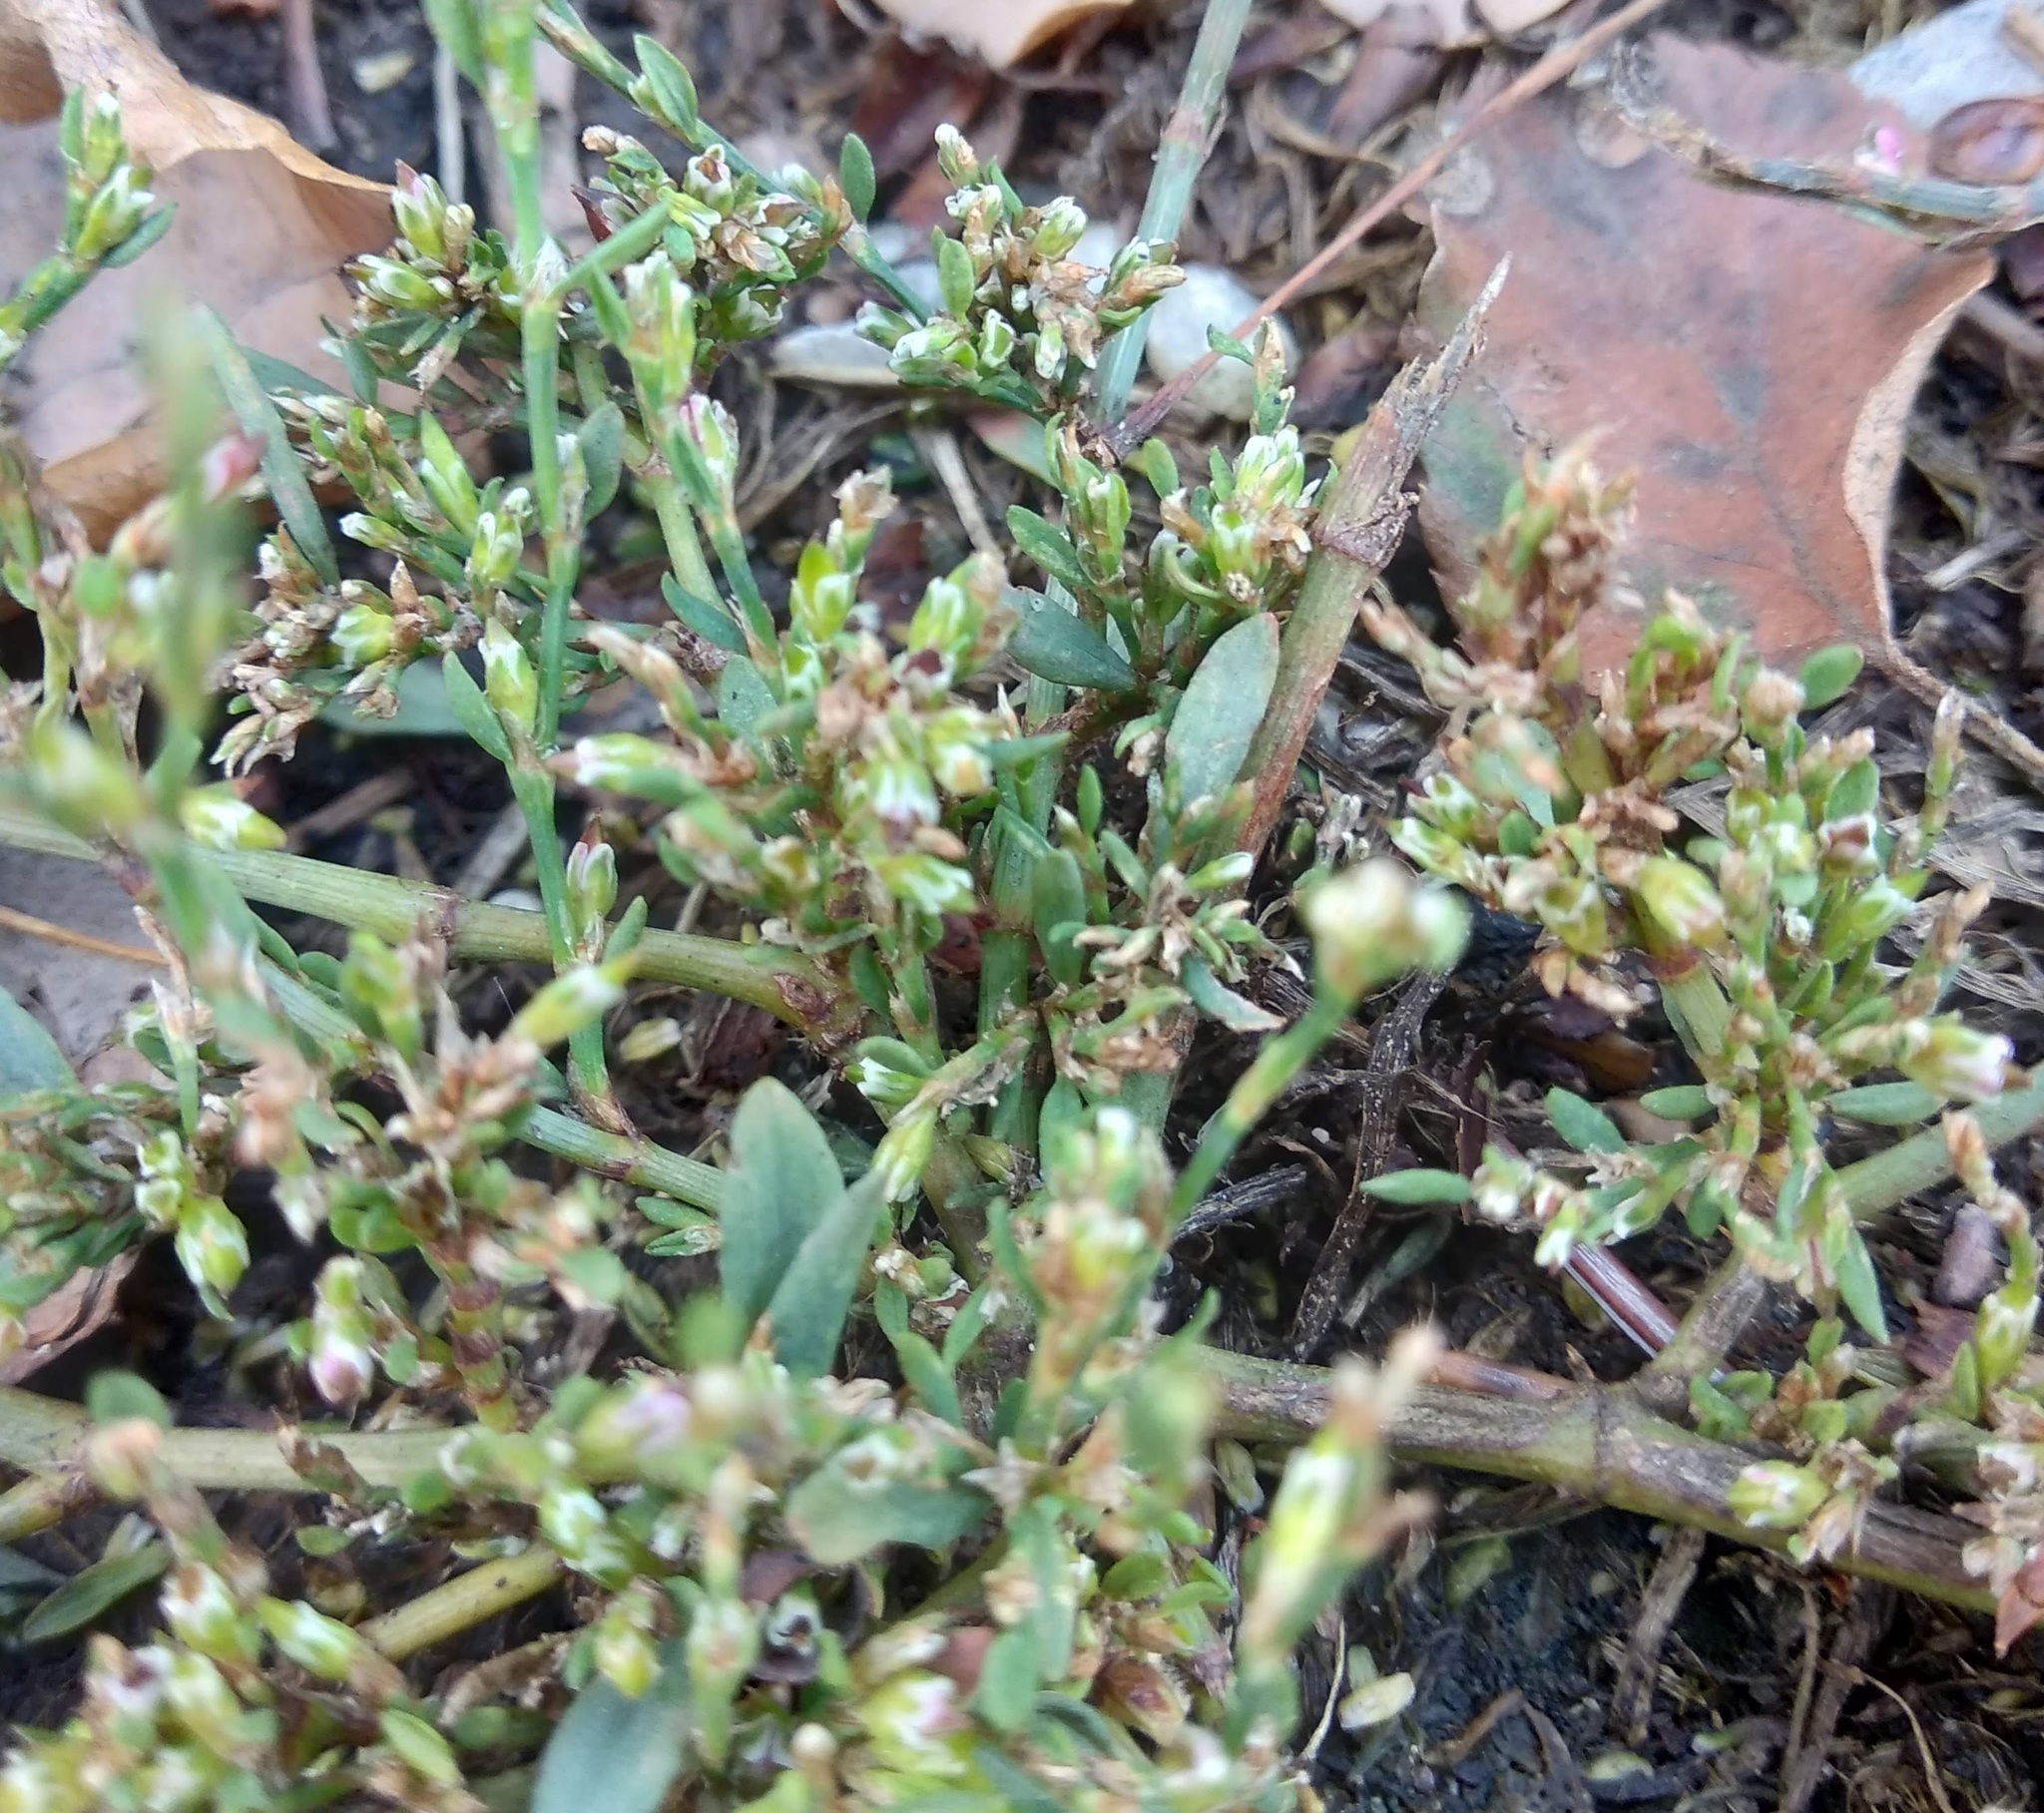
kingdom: Plantae
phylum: Tracheophyta
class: Magnoliopsida
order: Caryophyllales
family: Polygonaceae
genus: Polygonum
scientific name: Polygonum
